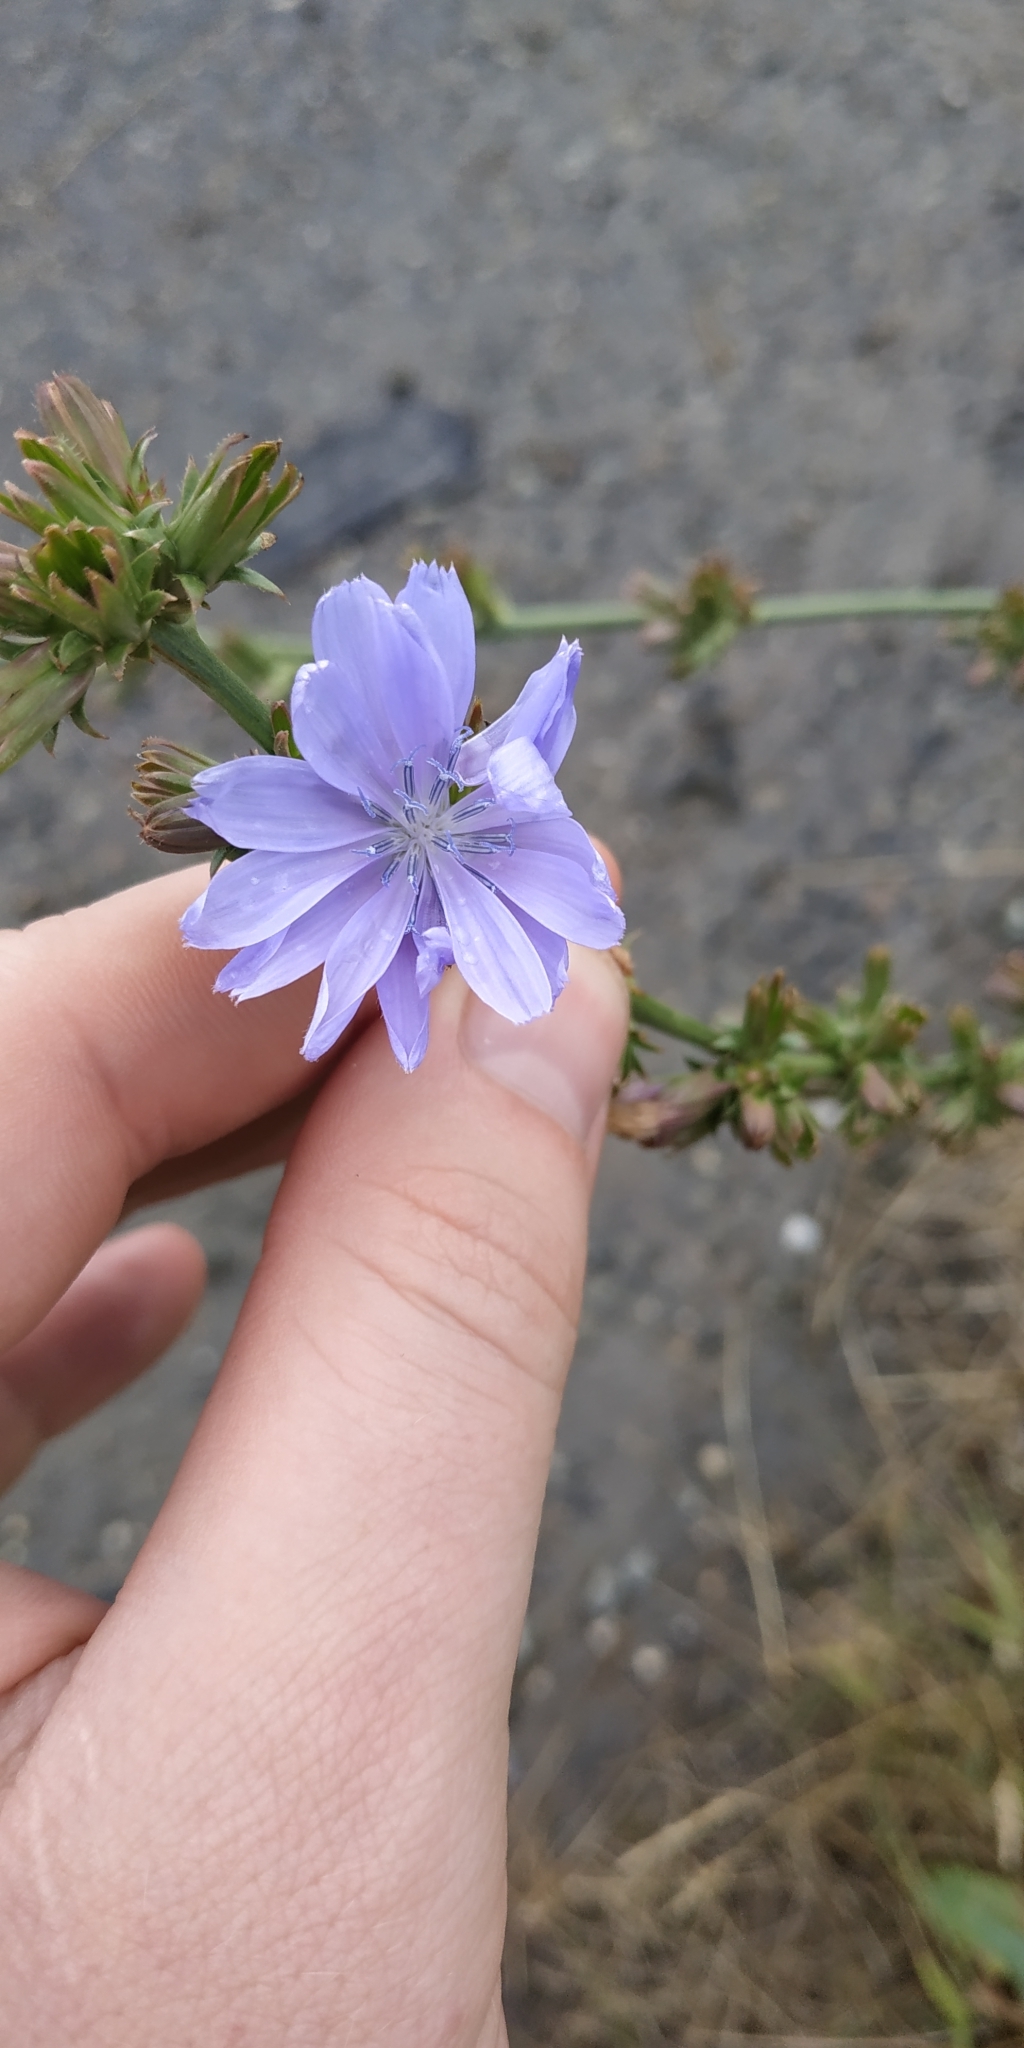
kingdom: Plantae
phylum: Tracheophyta
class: Magnoliopsida
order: Asterales
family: Asteraceae
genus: Cichorium
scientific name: Cichorium intybus
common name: Chicory
